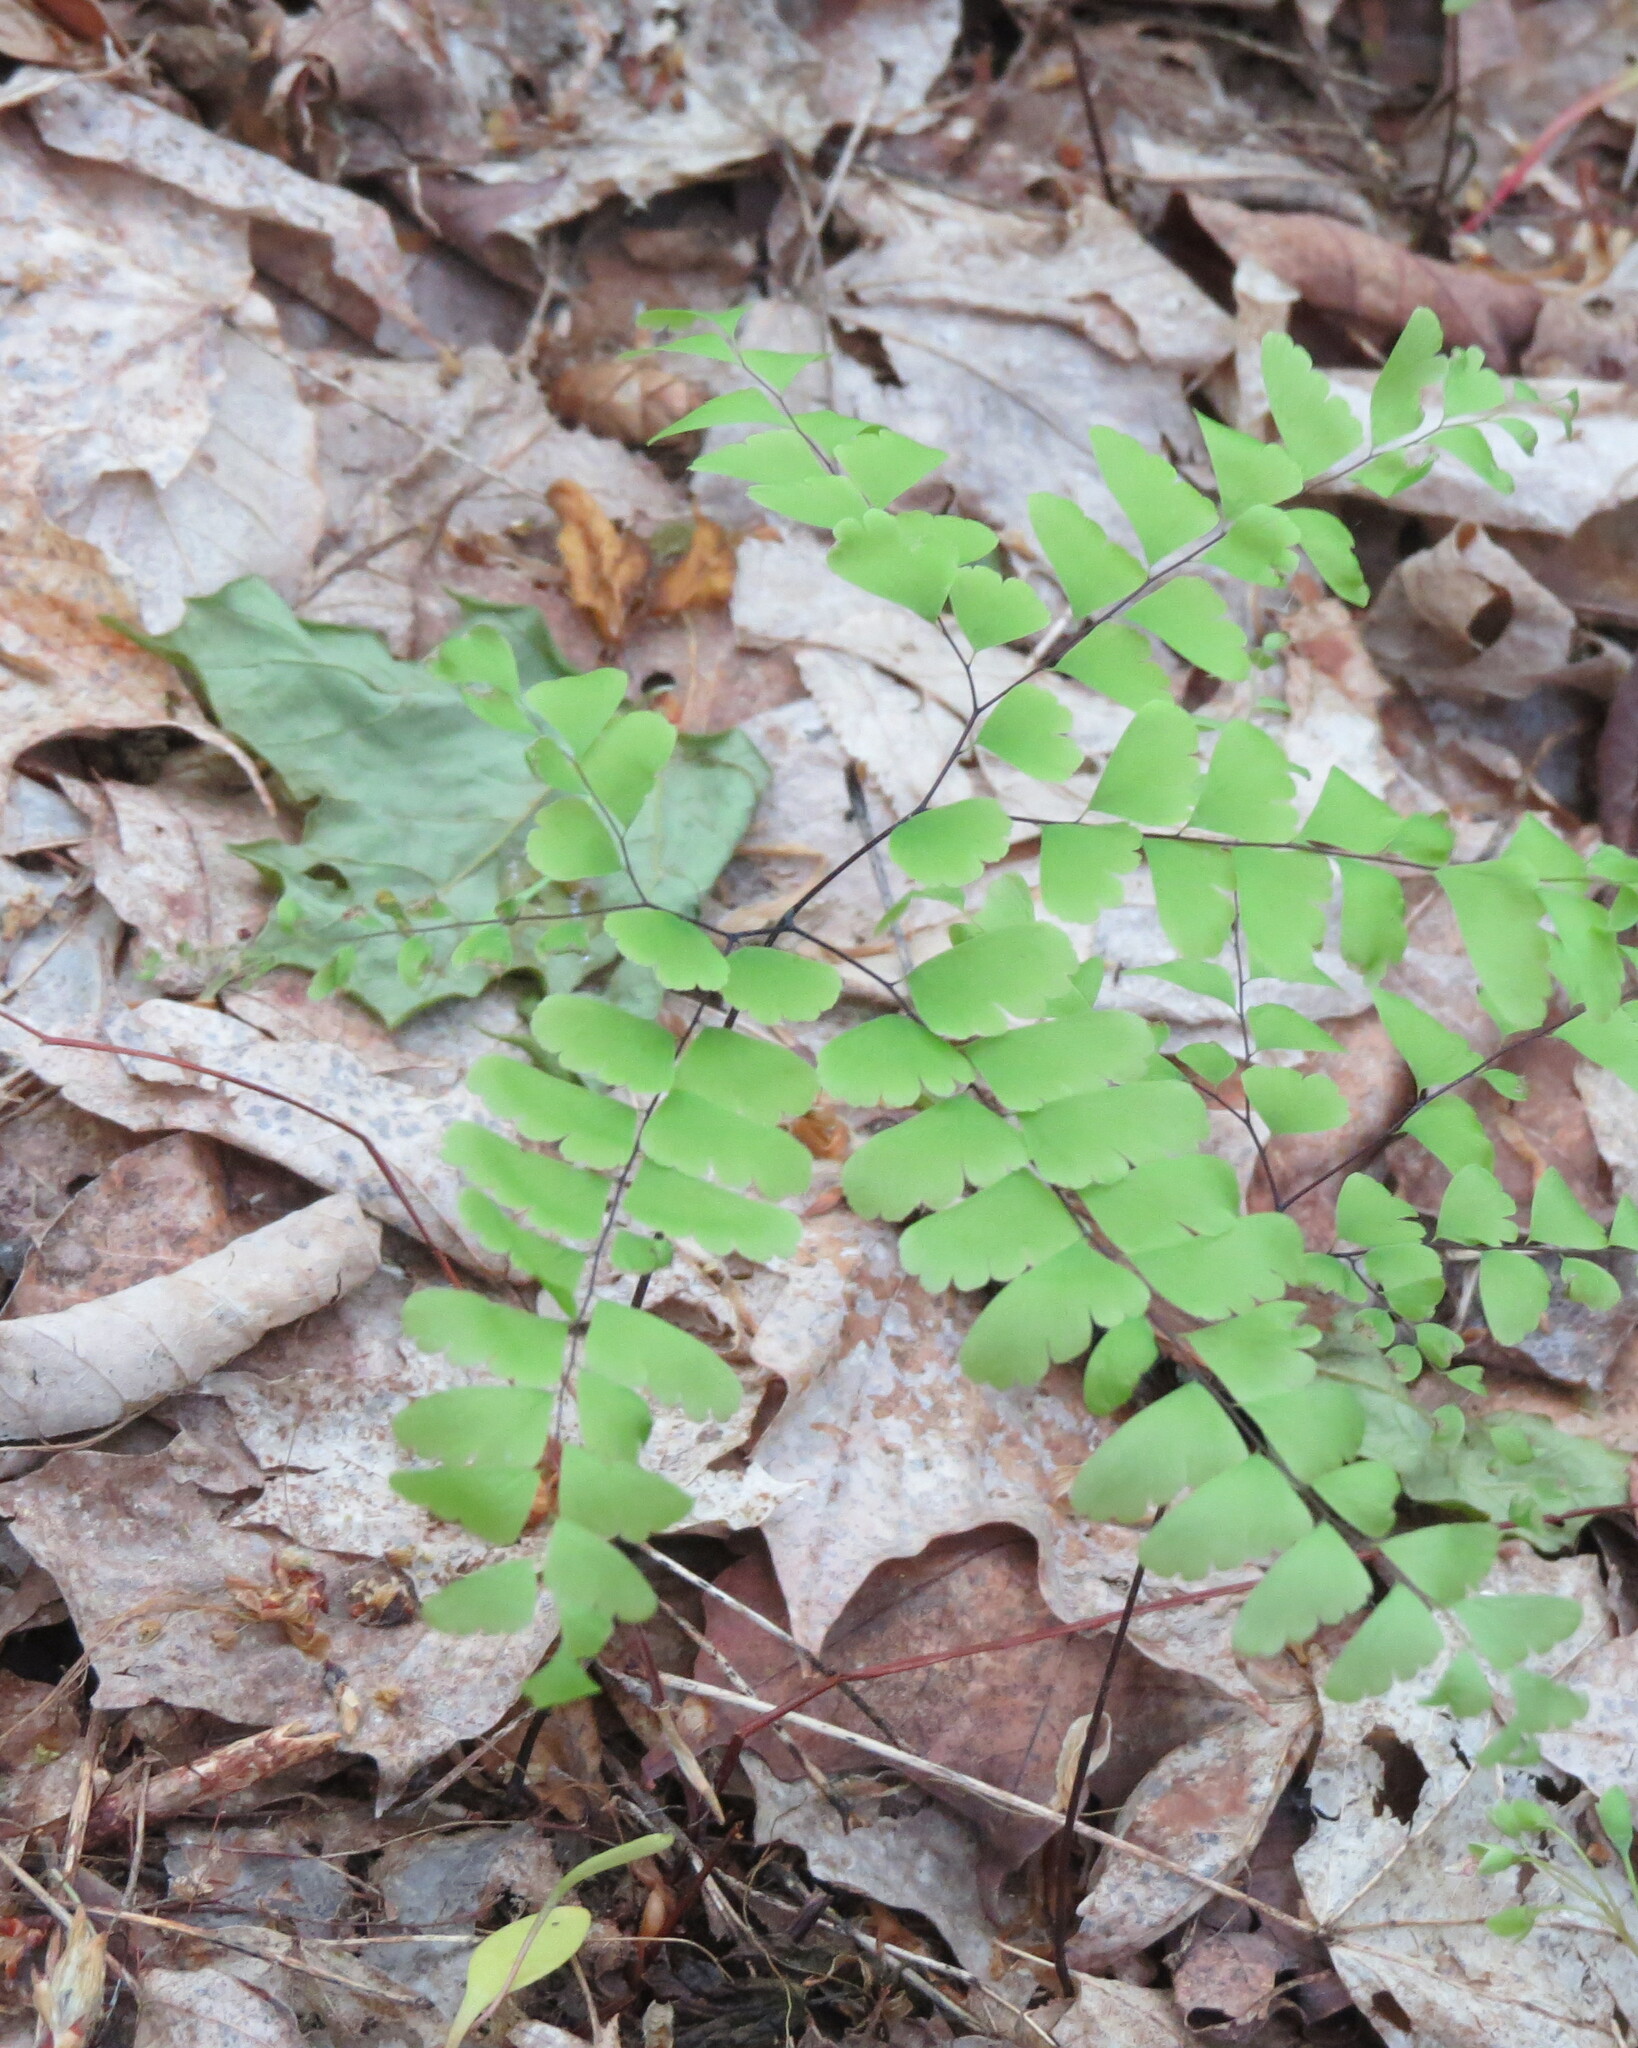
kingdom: Plantae
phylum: Tracheophyta
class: Polypodiopsida
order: Polypodiales
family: Pteridaceae
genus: Adiantum
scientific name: Adiantum pedatum
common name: Five-finger fern
